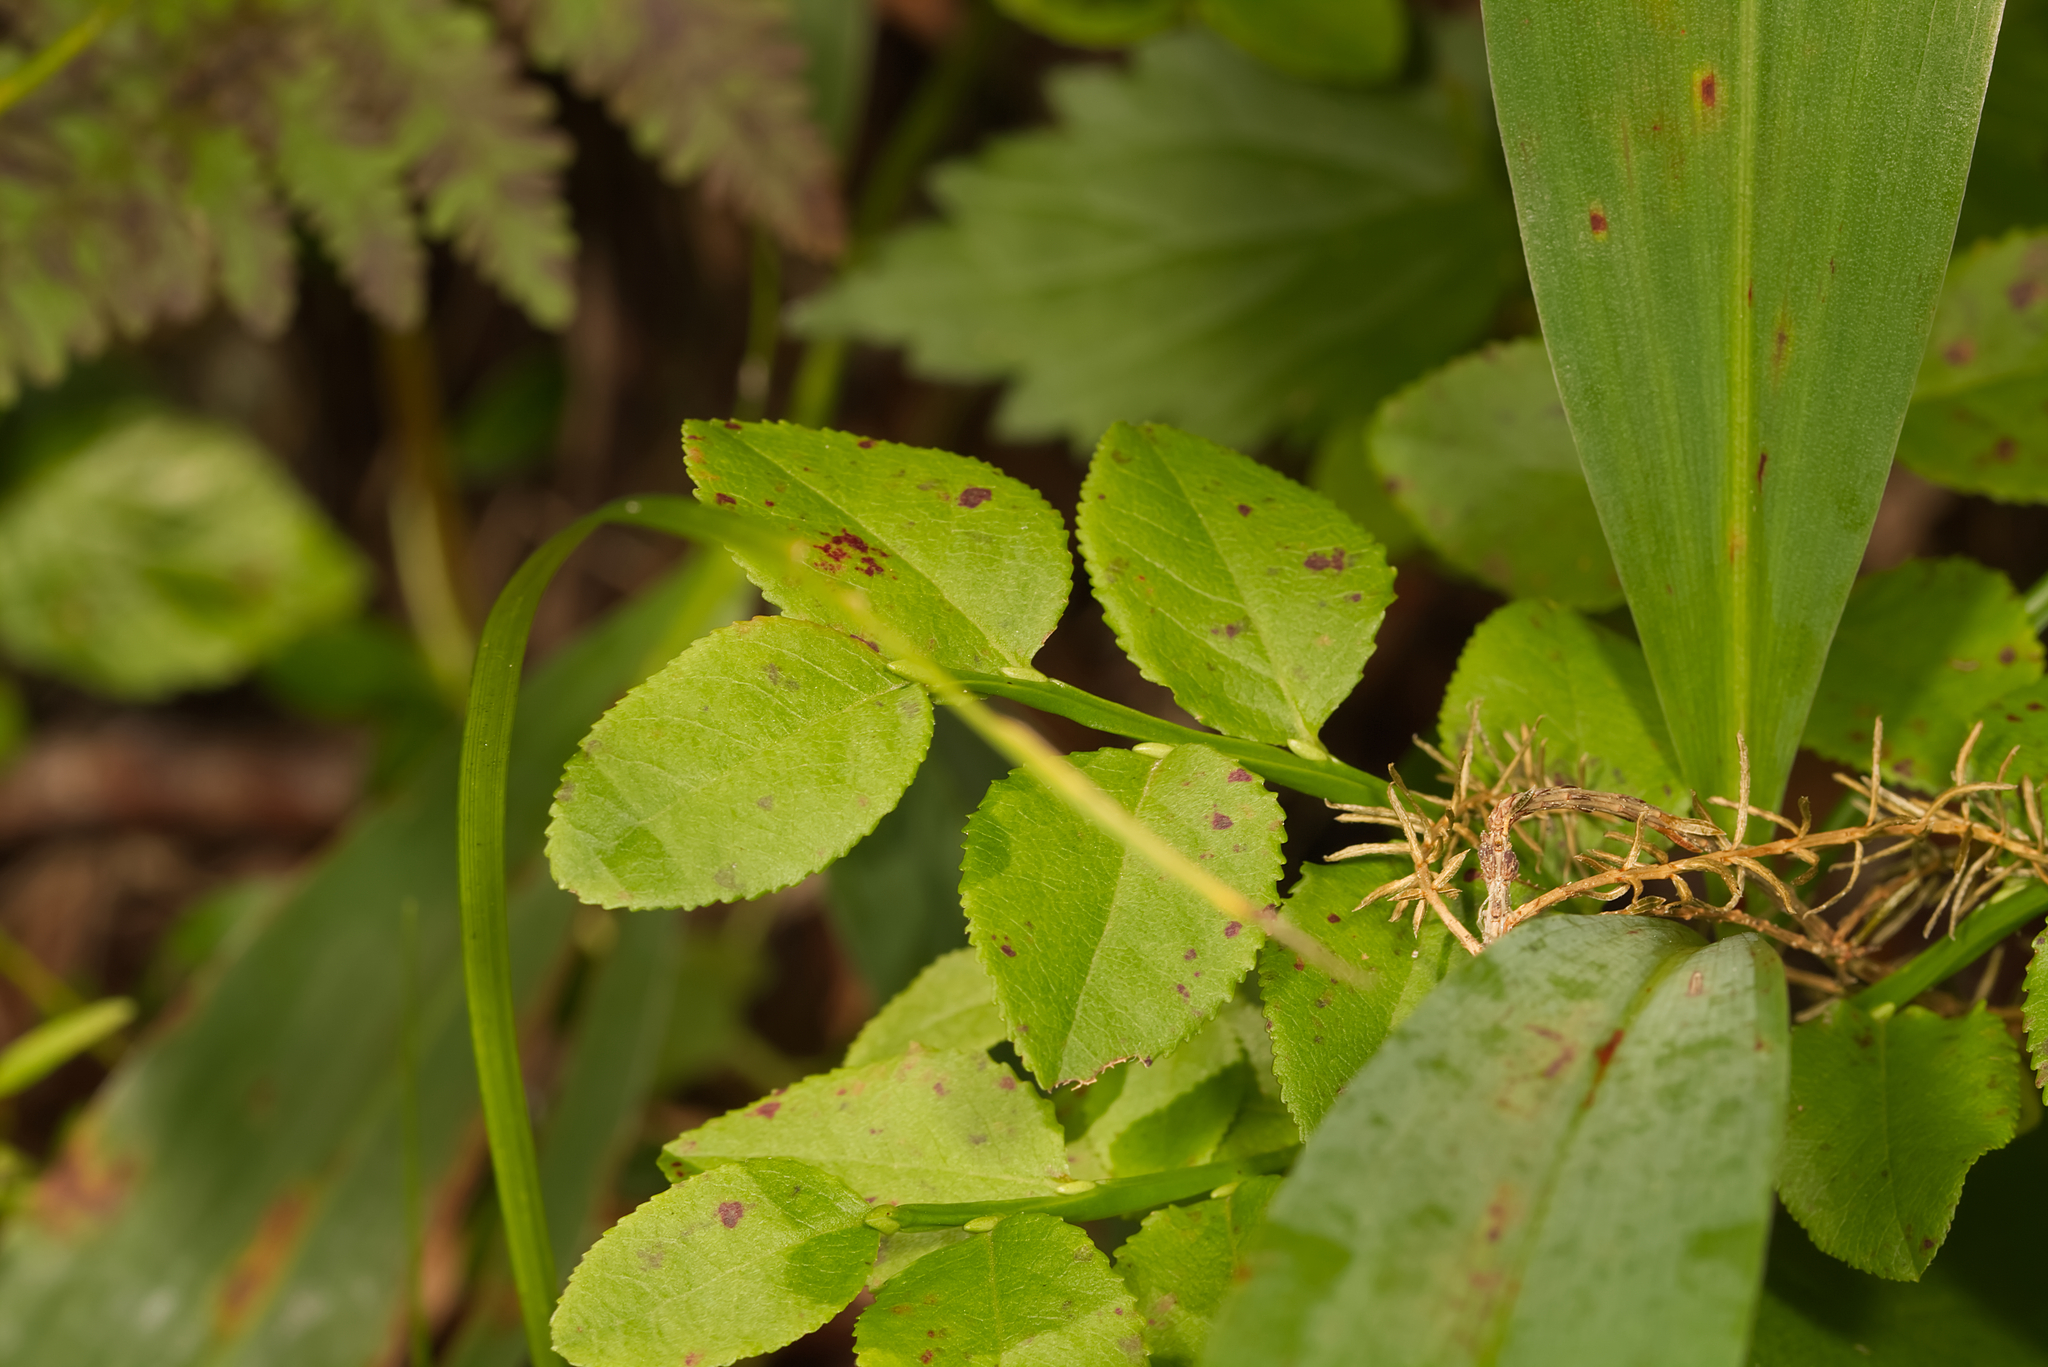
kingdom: Plantae
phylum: Tracheophyta
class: Magnoliopsida
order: Ericales
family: Ericaceae
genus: Vaccinium
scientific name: Vaccinium myrtillus
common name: Bilberry
